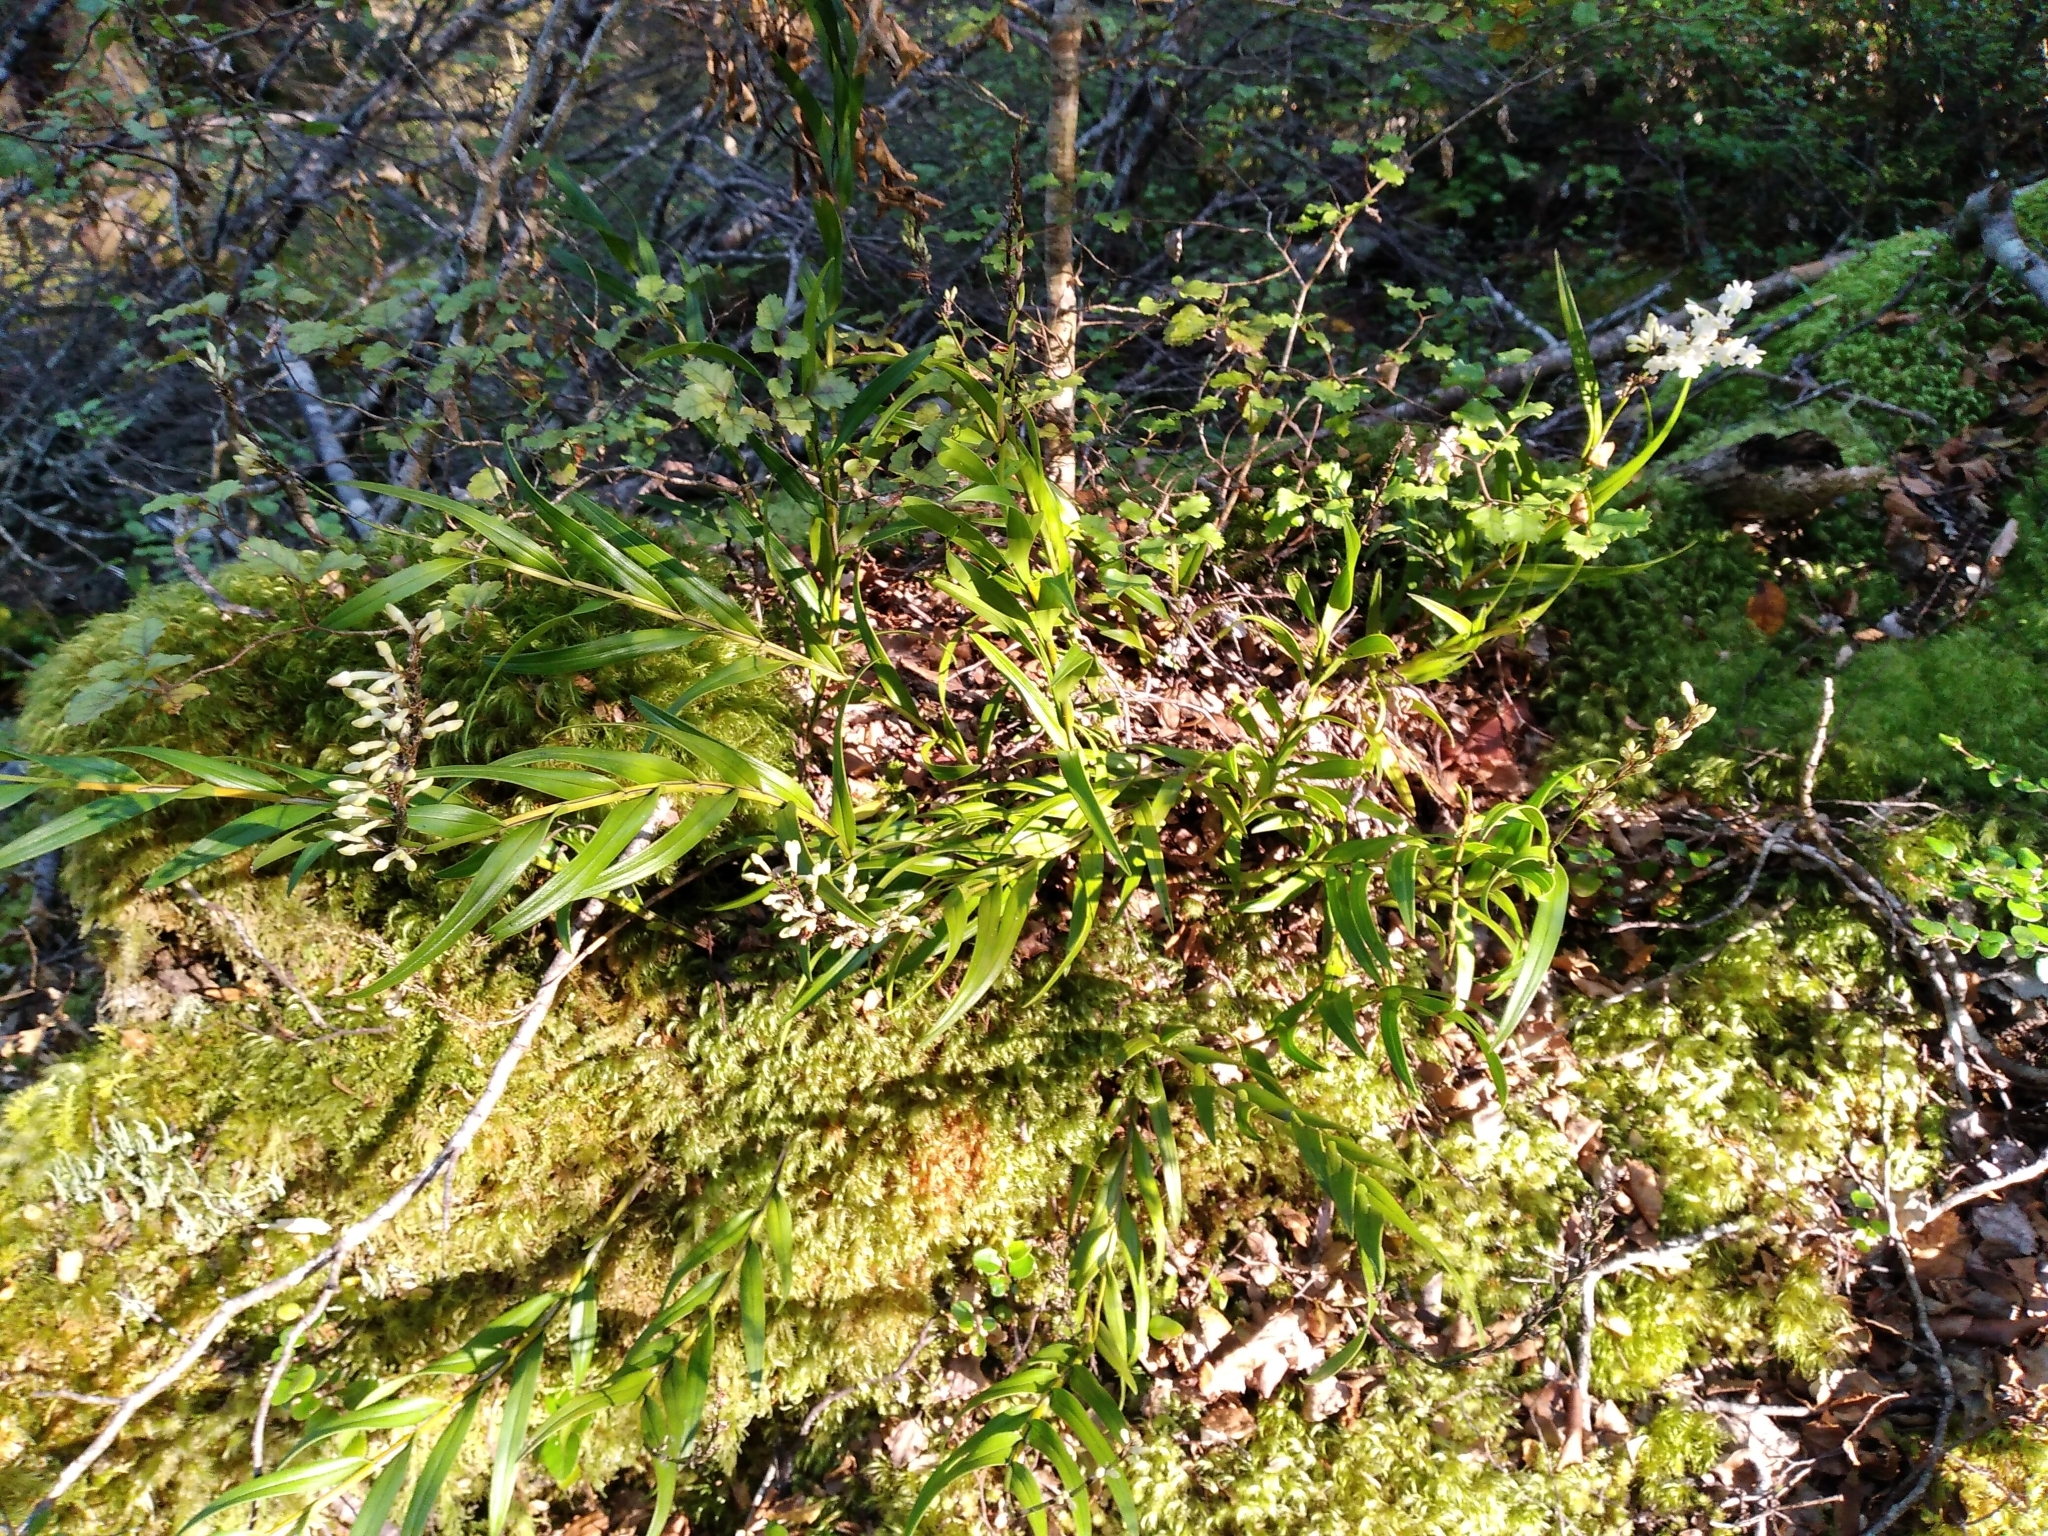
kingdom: Plantae
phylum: Tracheophyta
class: Liliopsida
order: Asparagales
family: Orchidaceae
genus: Earina
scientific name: Earina autumnalis
